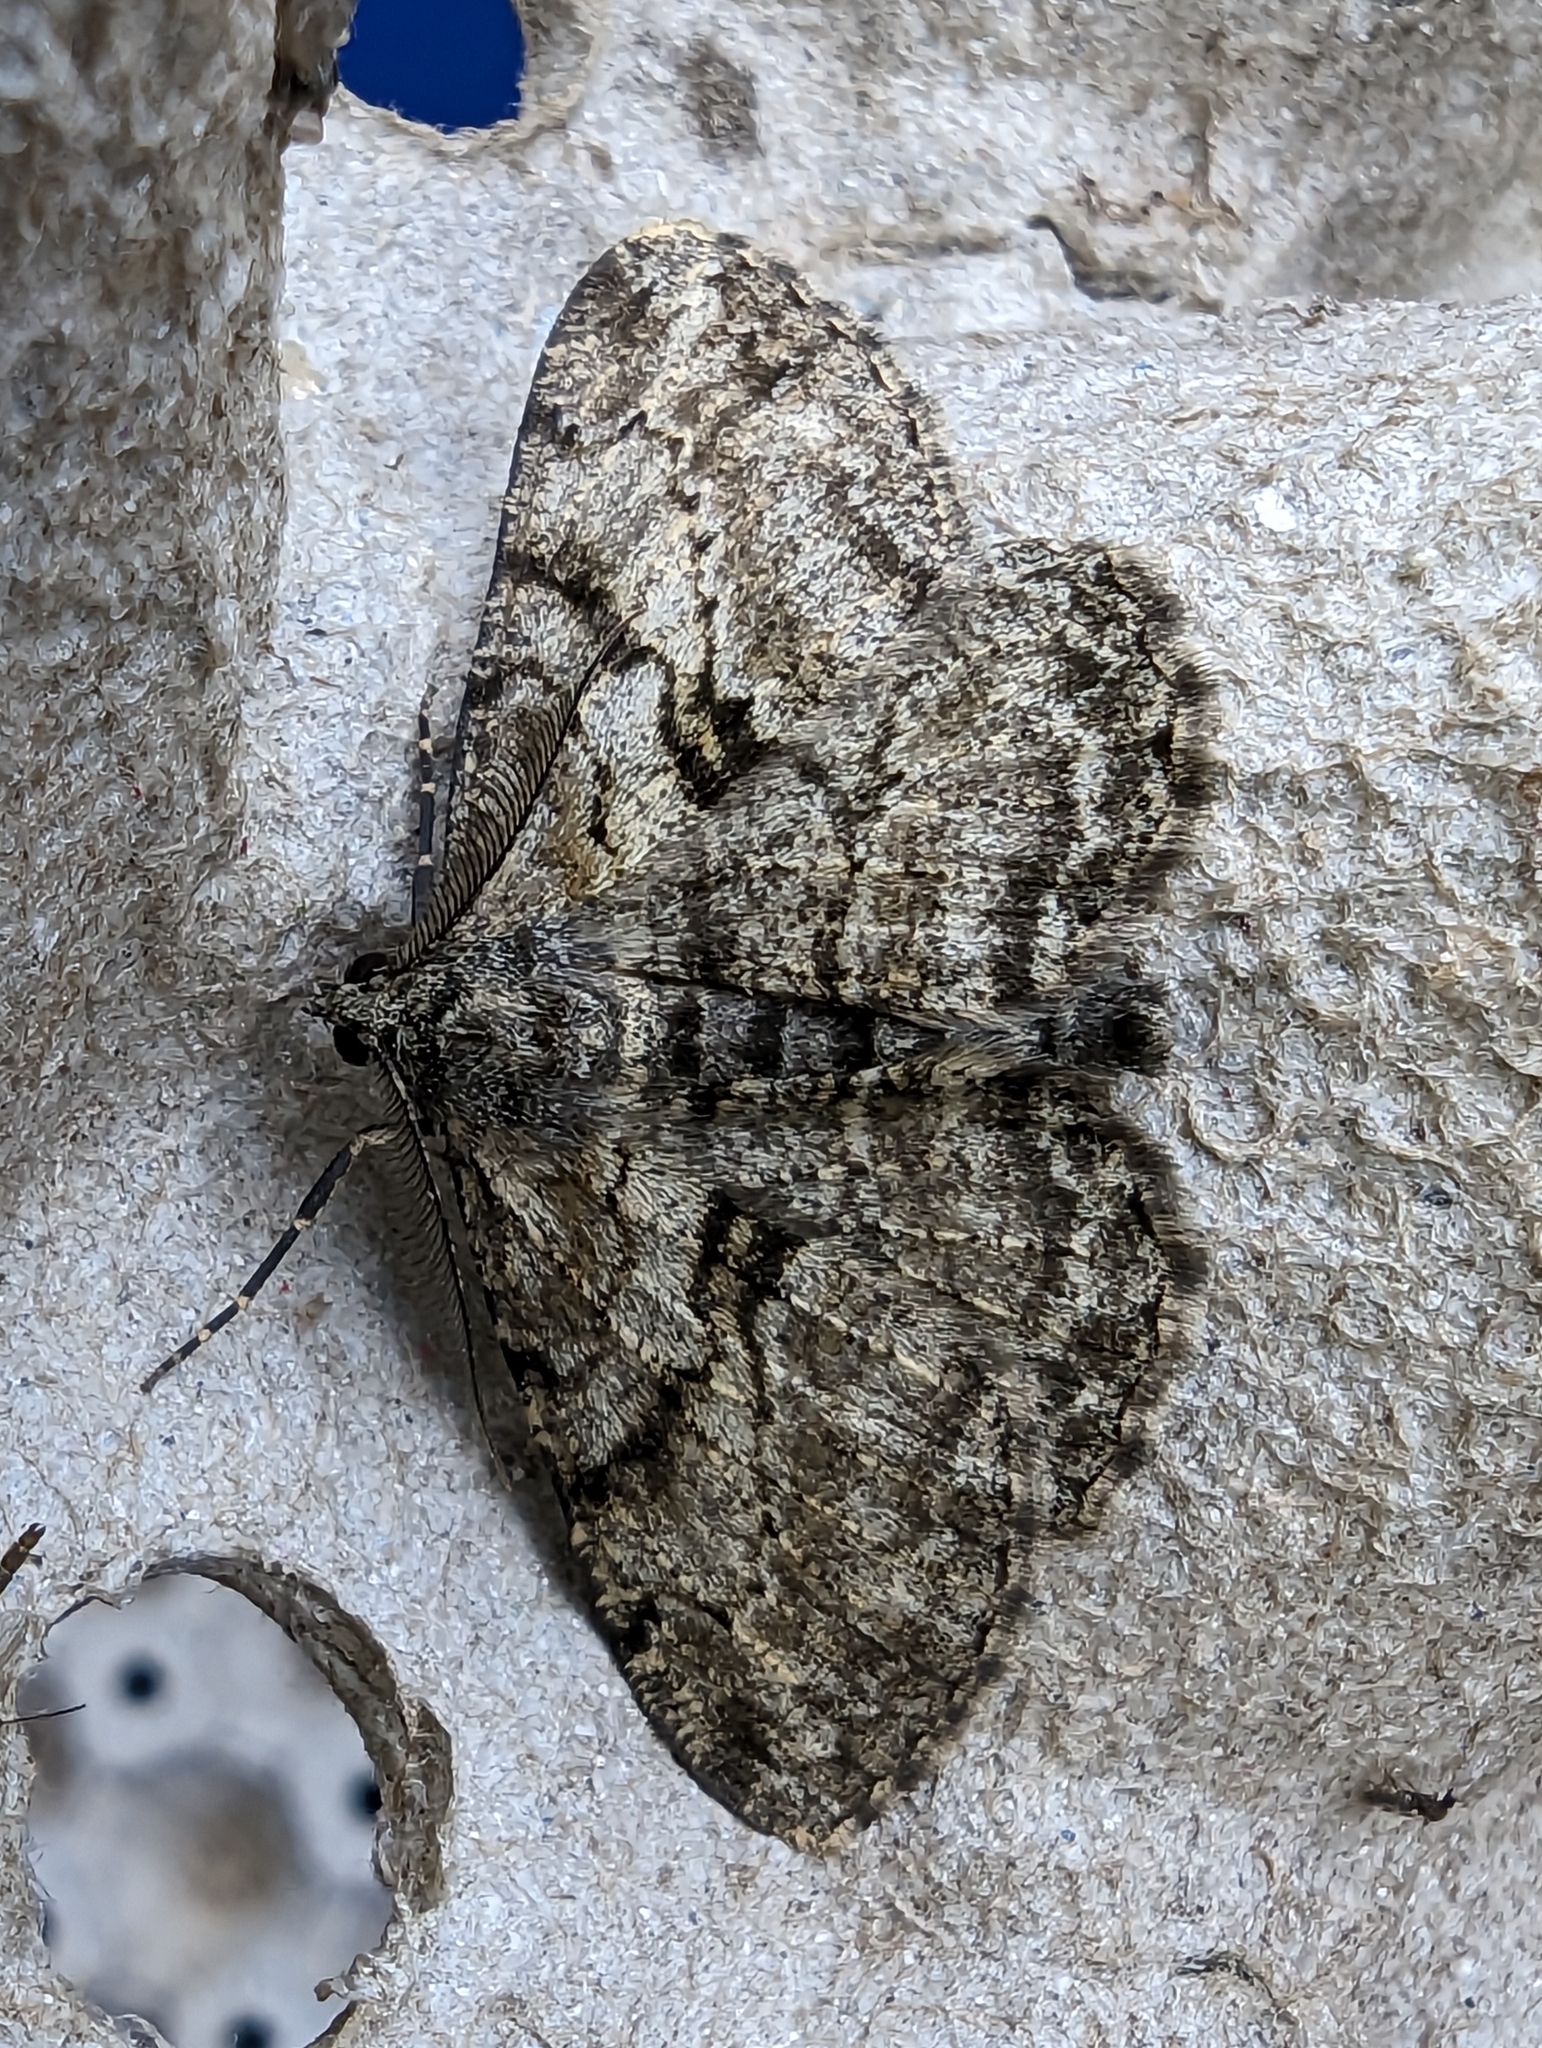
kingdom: Animalia
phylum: Arthropoda
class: Insecta
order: Lepidoptera
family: Geometridae
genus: Peribatodes
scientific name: Peribatodes rhomboidaria
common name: Willow beauty
